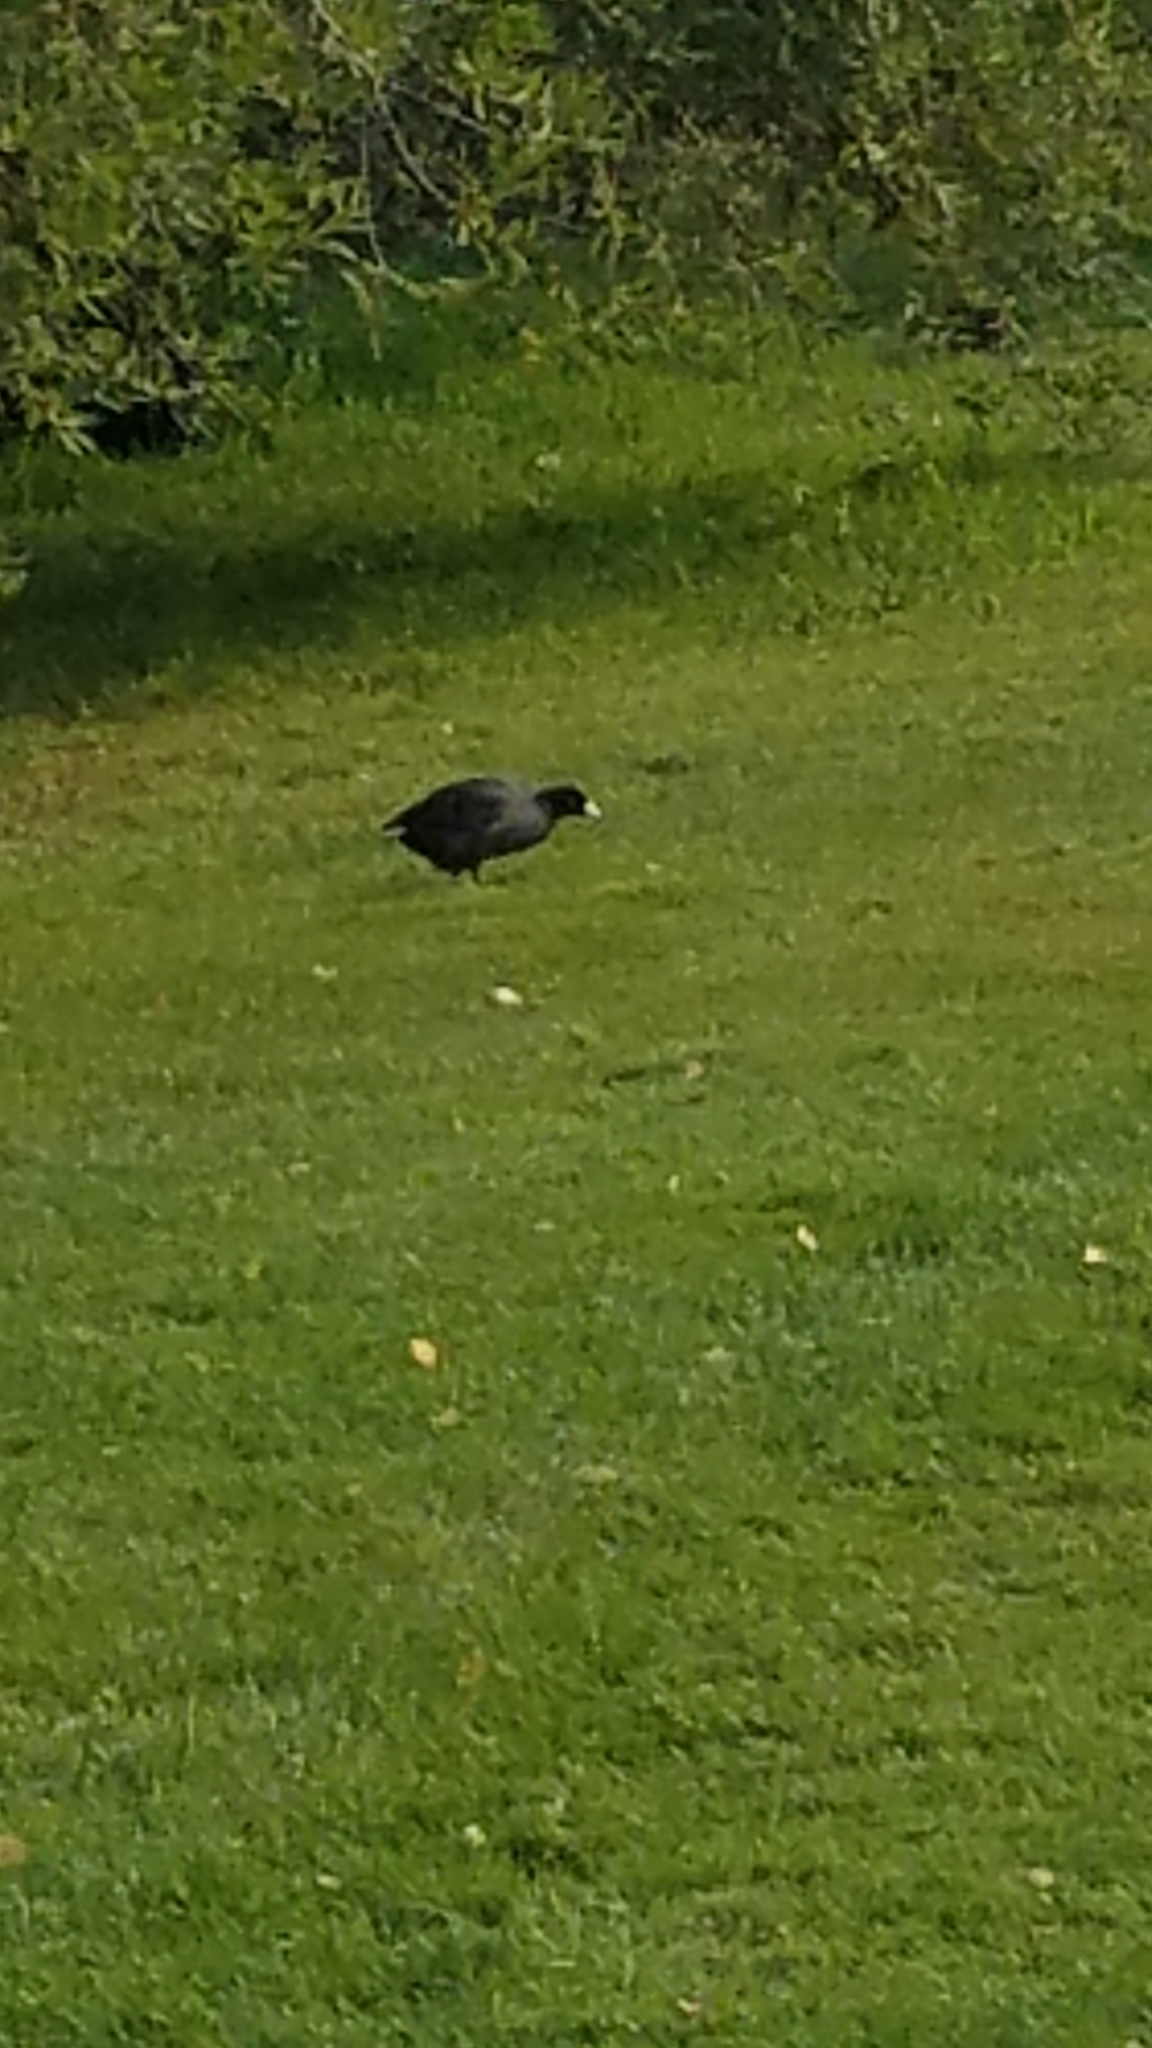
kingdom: Animalia
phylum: Chordata
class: Aves
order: Gruiformes
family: Rallidae
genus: Fulica
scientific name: Fulica americana
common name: American coot
